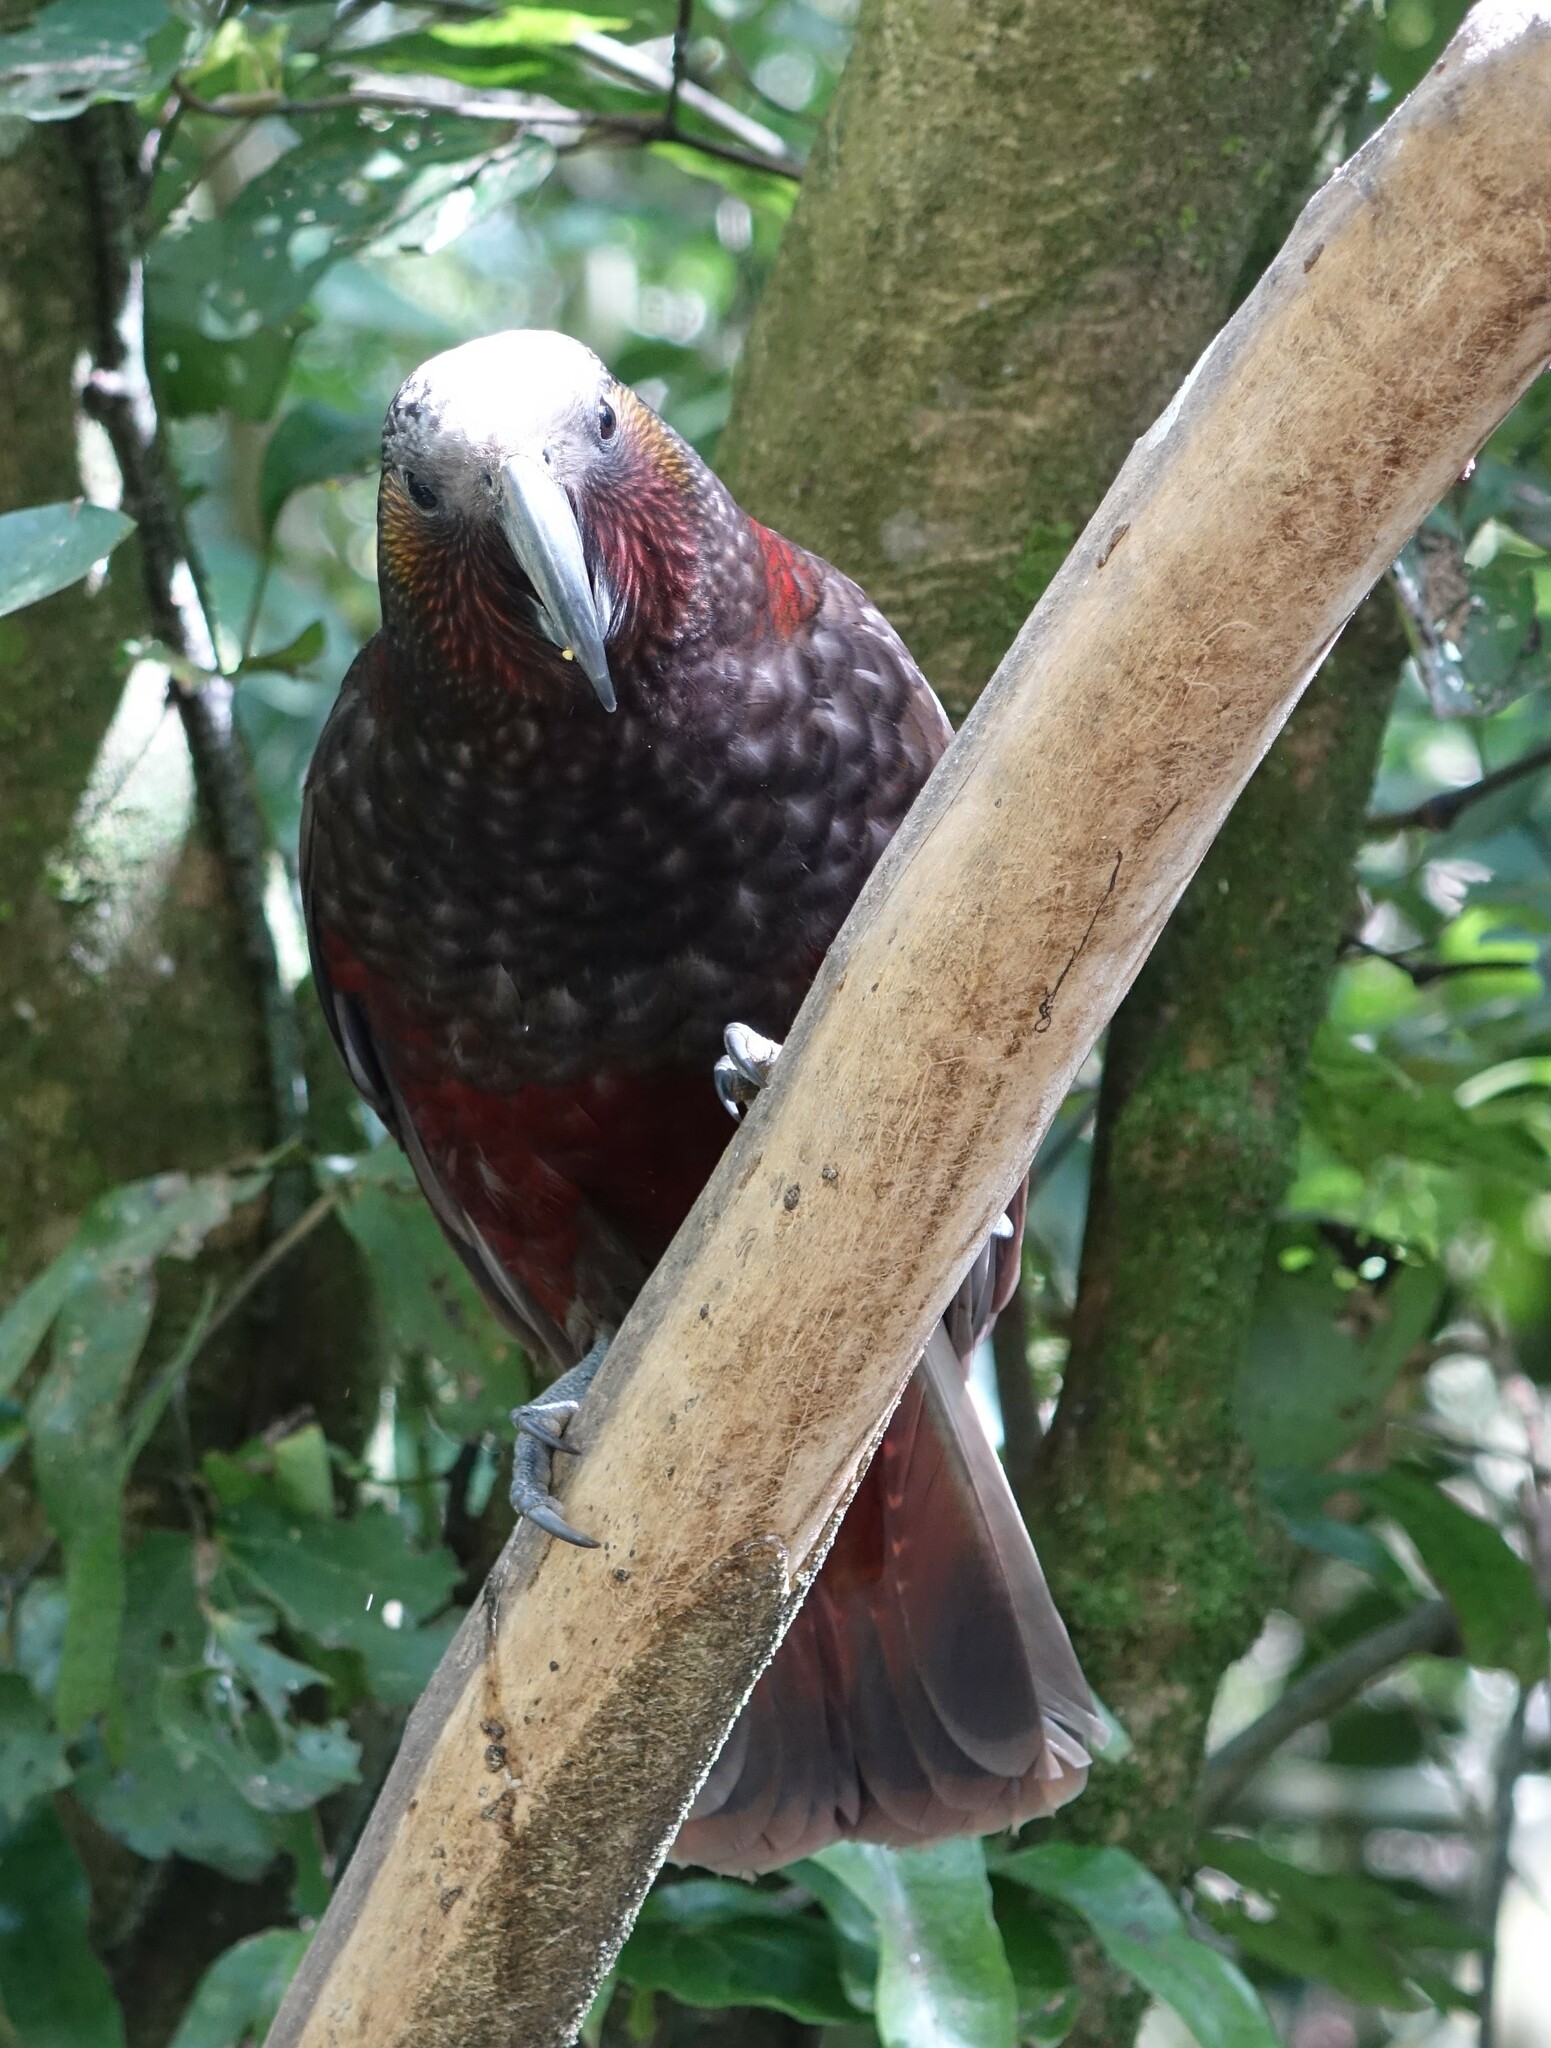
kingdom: Animalia
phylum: Chordata
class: Aves
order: Psittaciformes
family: Psittacidae
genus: Nestor
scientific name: Nestor meridionalis
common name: New zealand kaka
